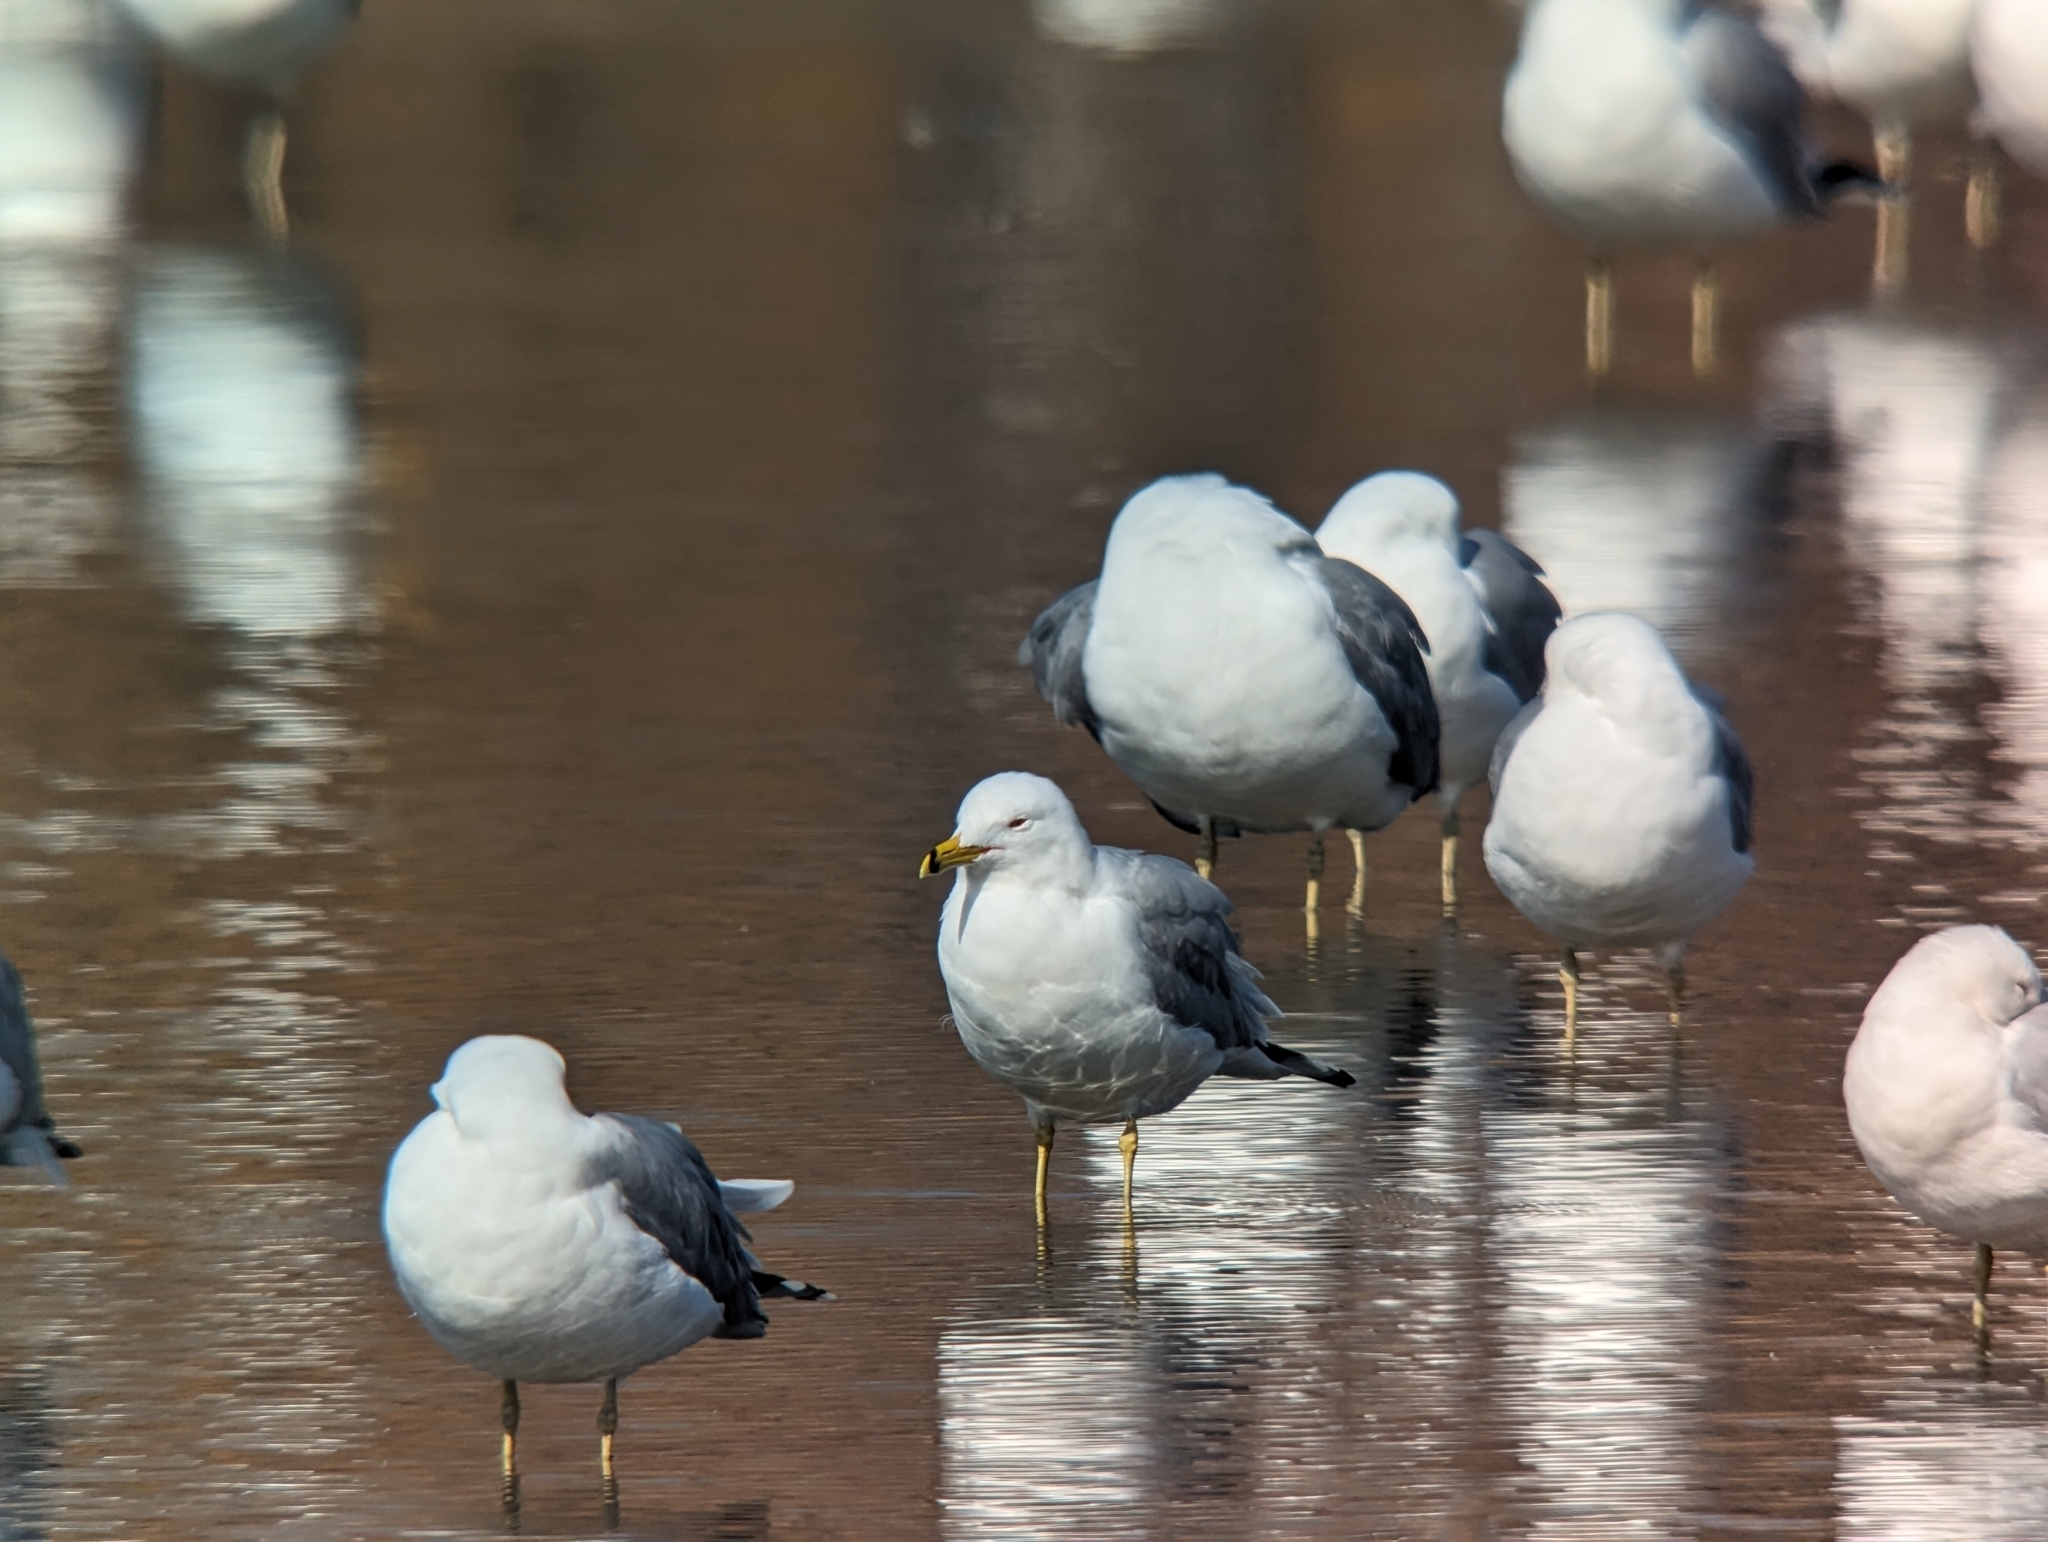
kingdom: Animalia
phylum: Chordata
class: Aves
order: Charadriiformes
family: Laridae
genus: Larus
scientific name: Larus delawarensis
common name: Ring-billed gull
